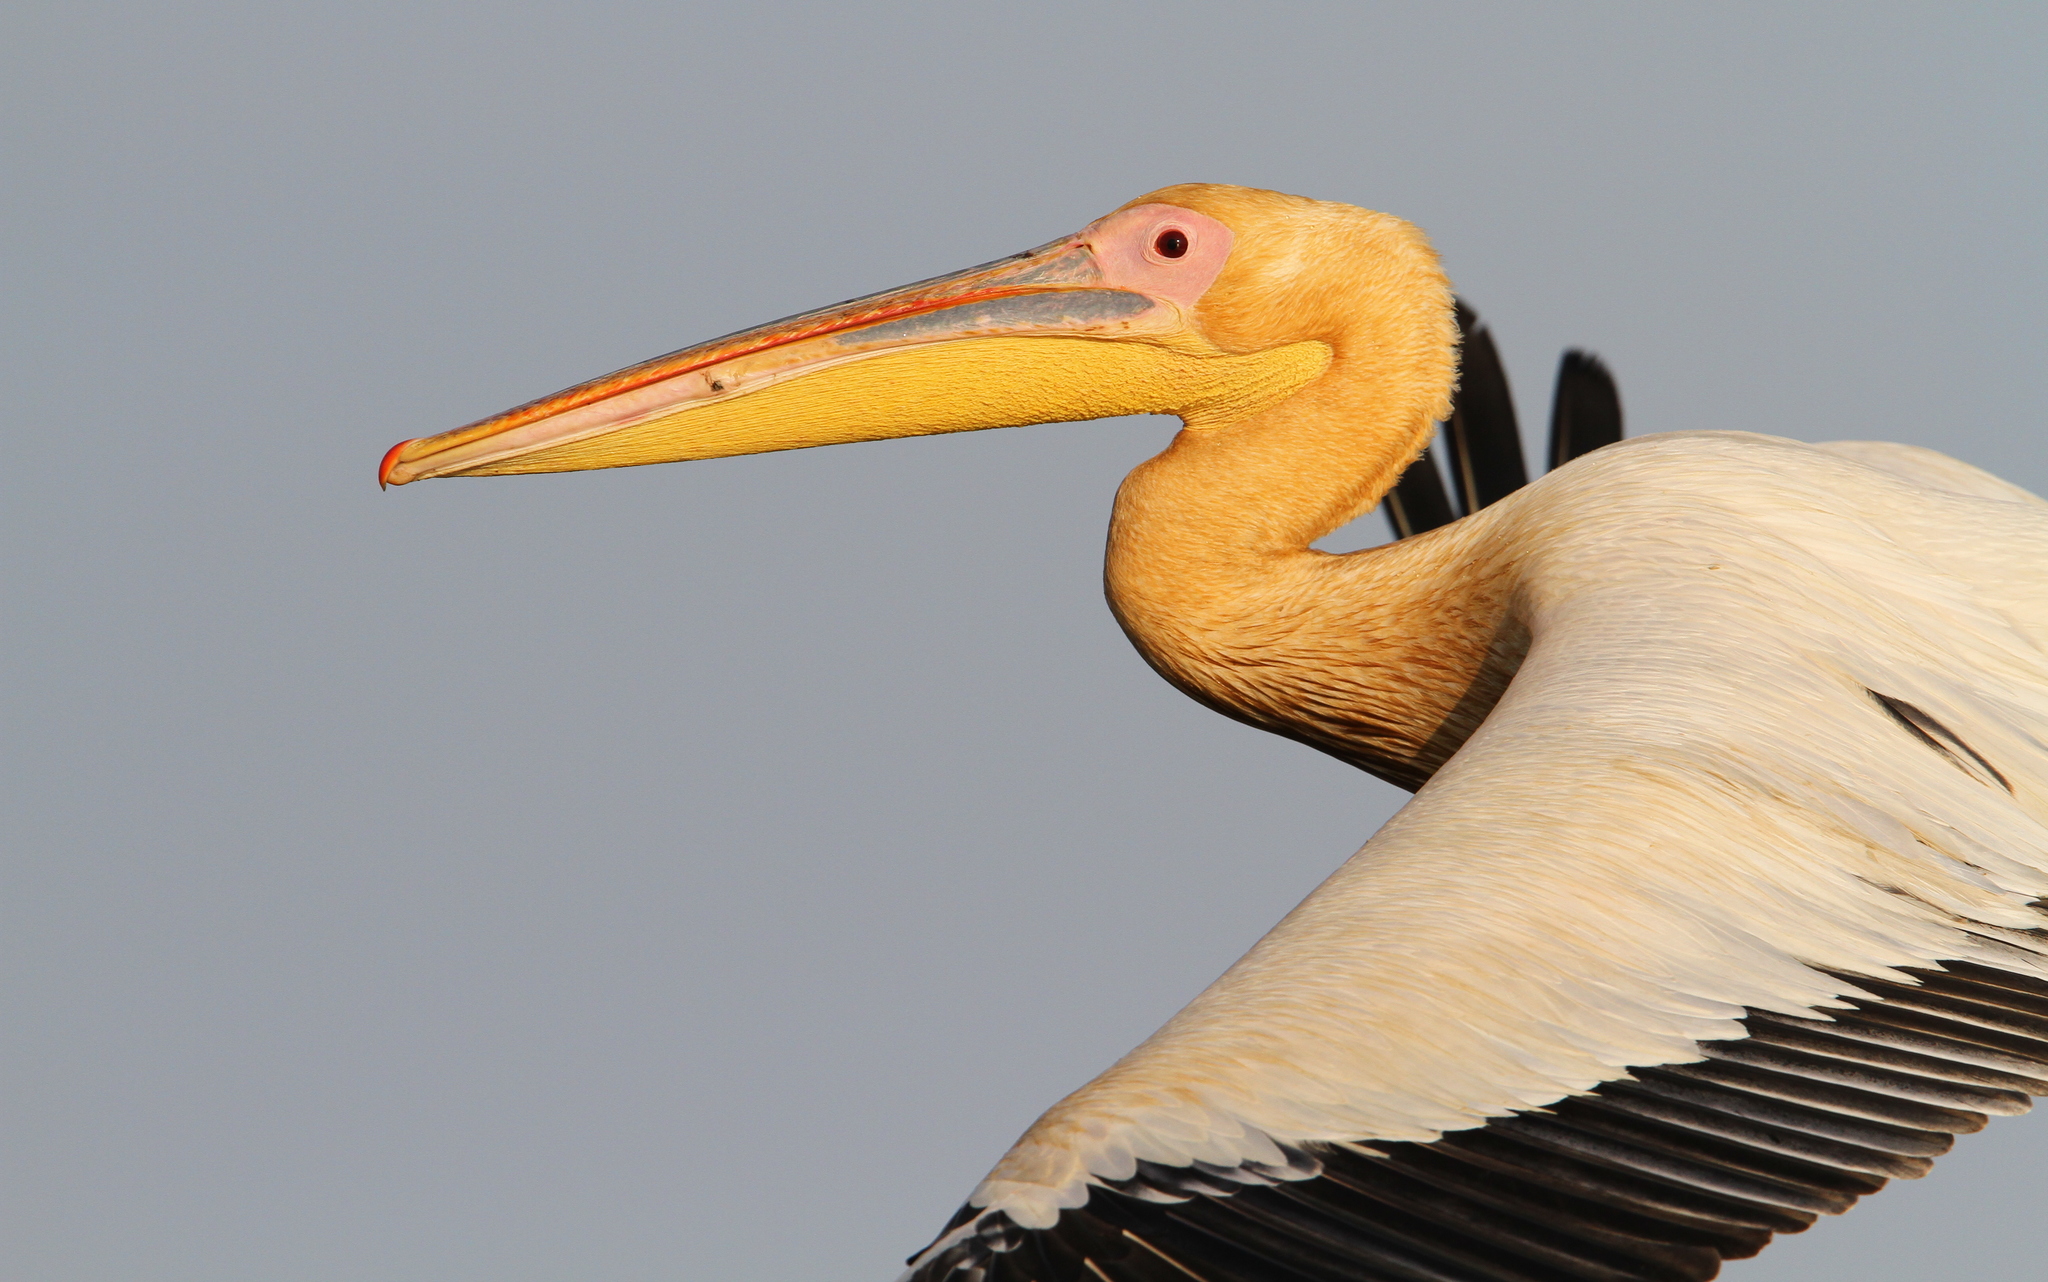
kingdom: Animalia
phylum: Chordata
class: Aves
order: Pelecaniformes
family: Pelecanidae
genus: Pelecanus
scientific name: Pelecanus onocrotalus
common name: Great white pelican
